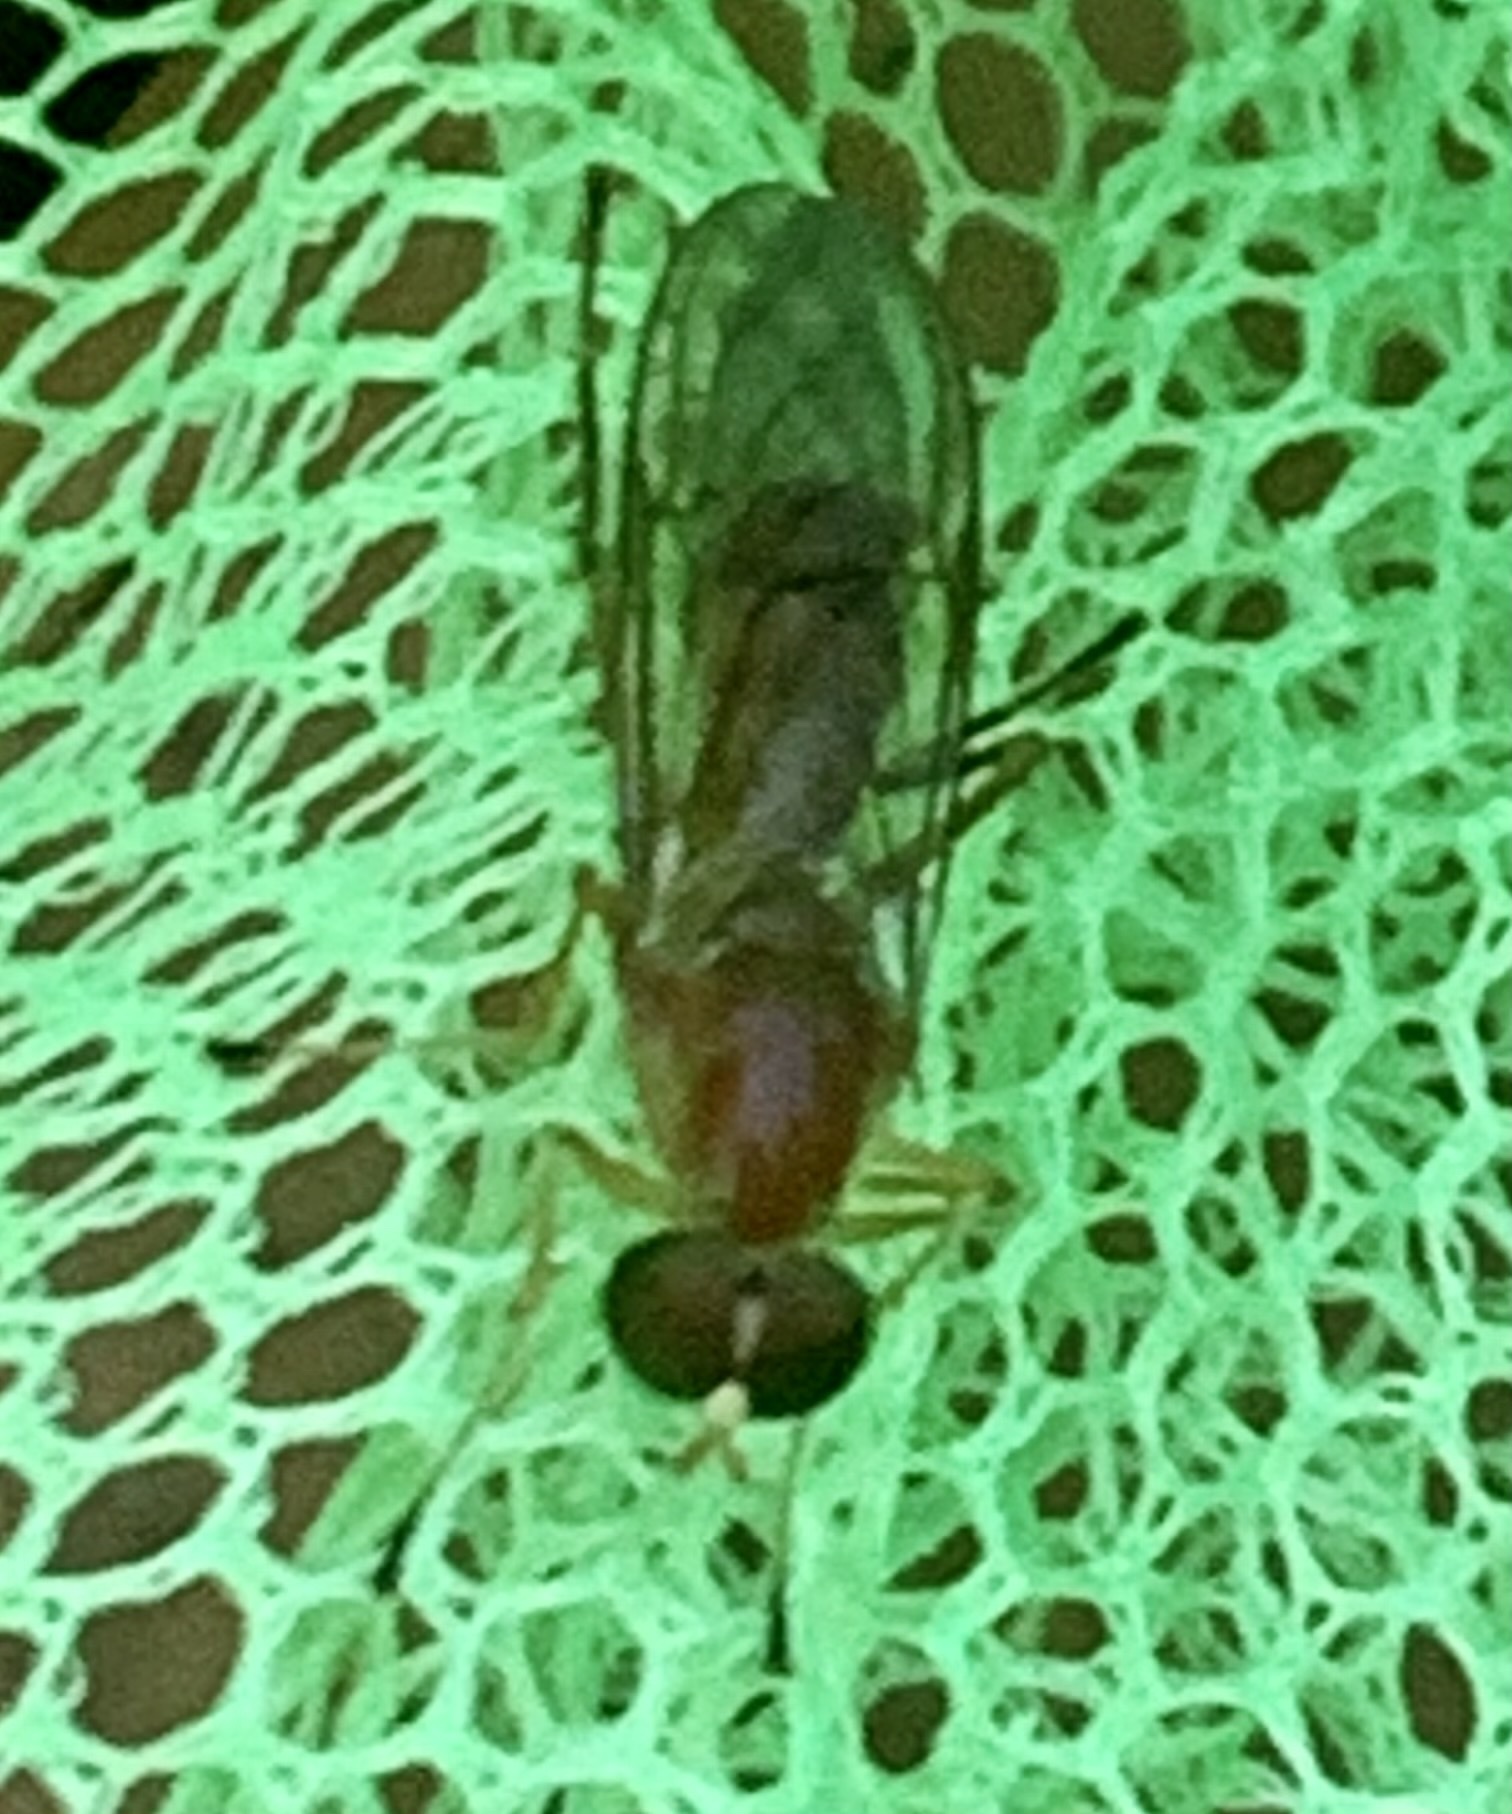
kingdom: Animalia
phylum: Arthropoda
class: Insecta
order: Diptera
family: Stratiomyidae
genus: Ptecticus
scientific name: Ptecticus trivittatus
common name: Compost fly
